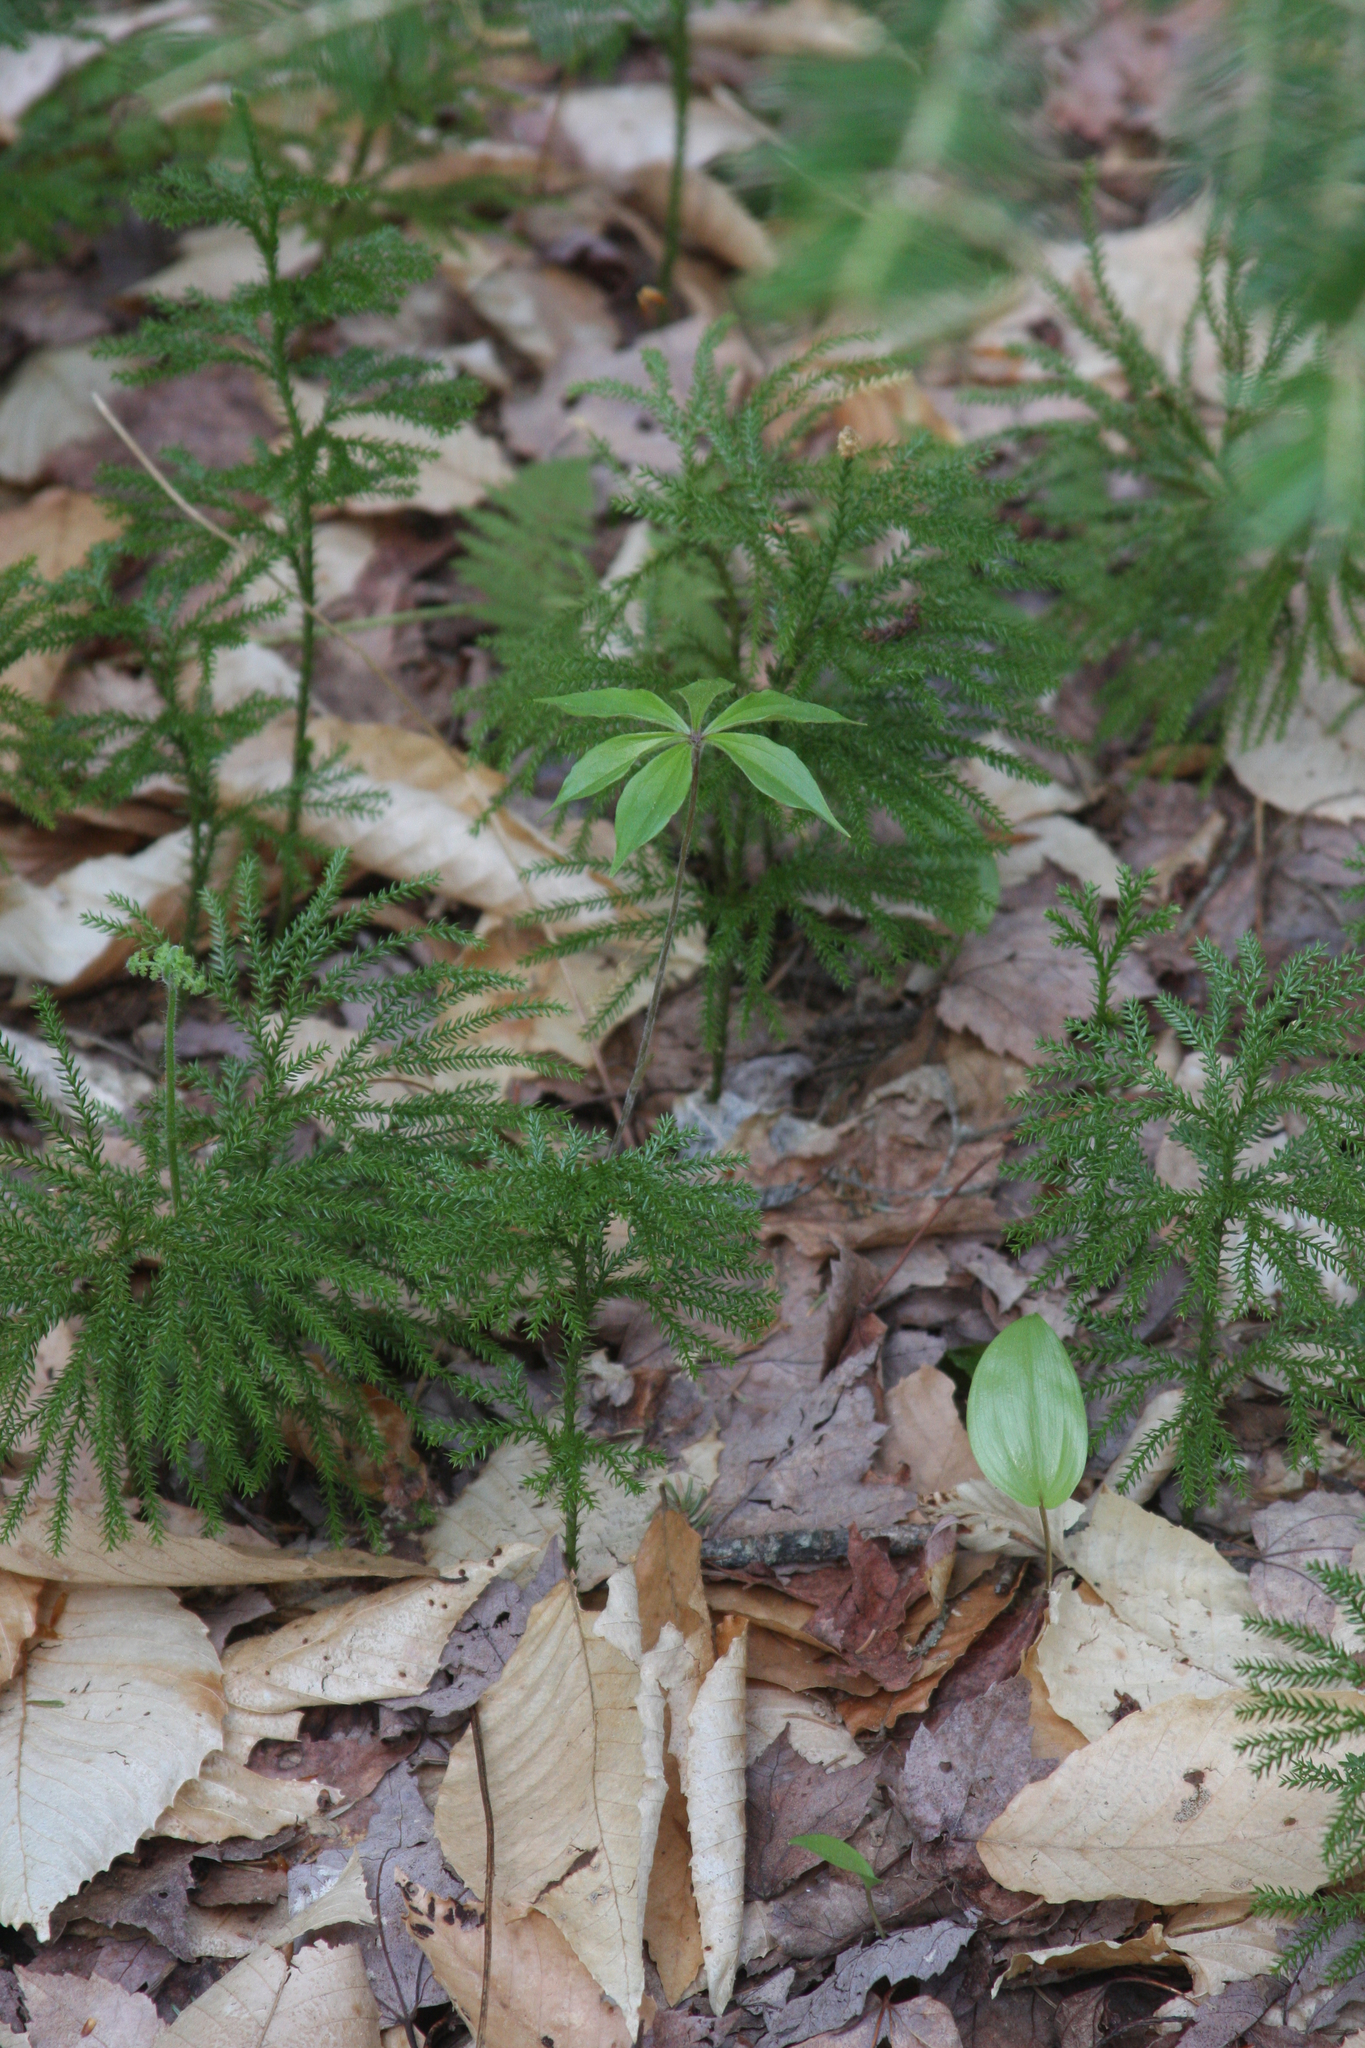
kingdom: Plantae
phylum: Tracheophyta
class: Liliopsida
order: Asparagales
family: Asparagaceae
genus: Maianthemum
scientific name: Maianthemum canadense
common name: False lily-of-the-valley
